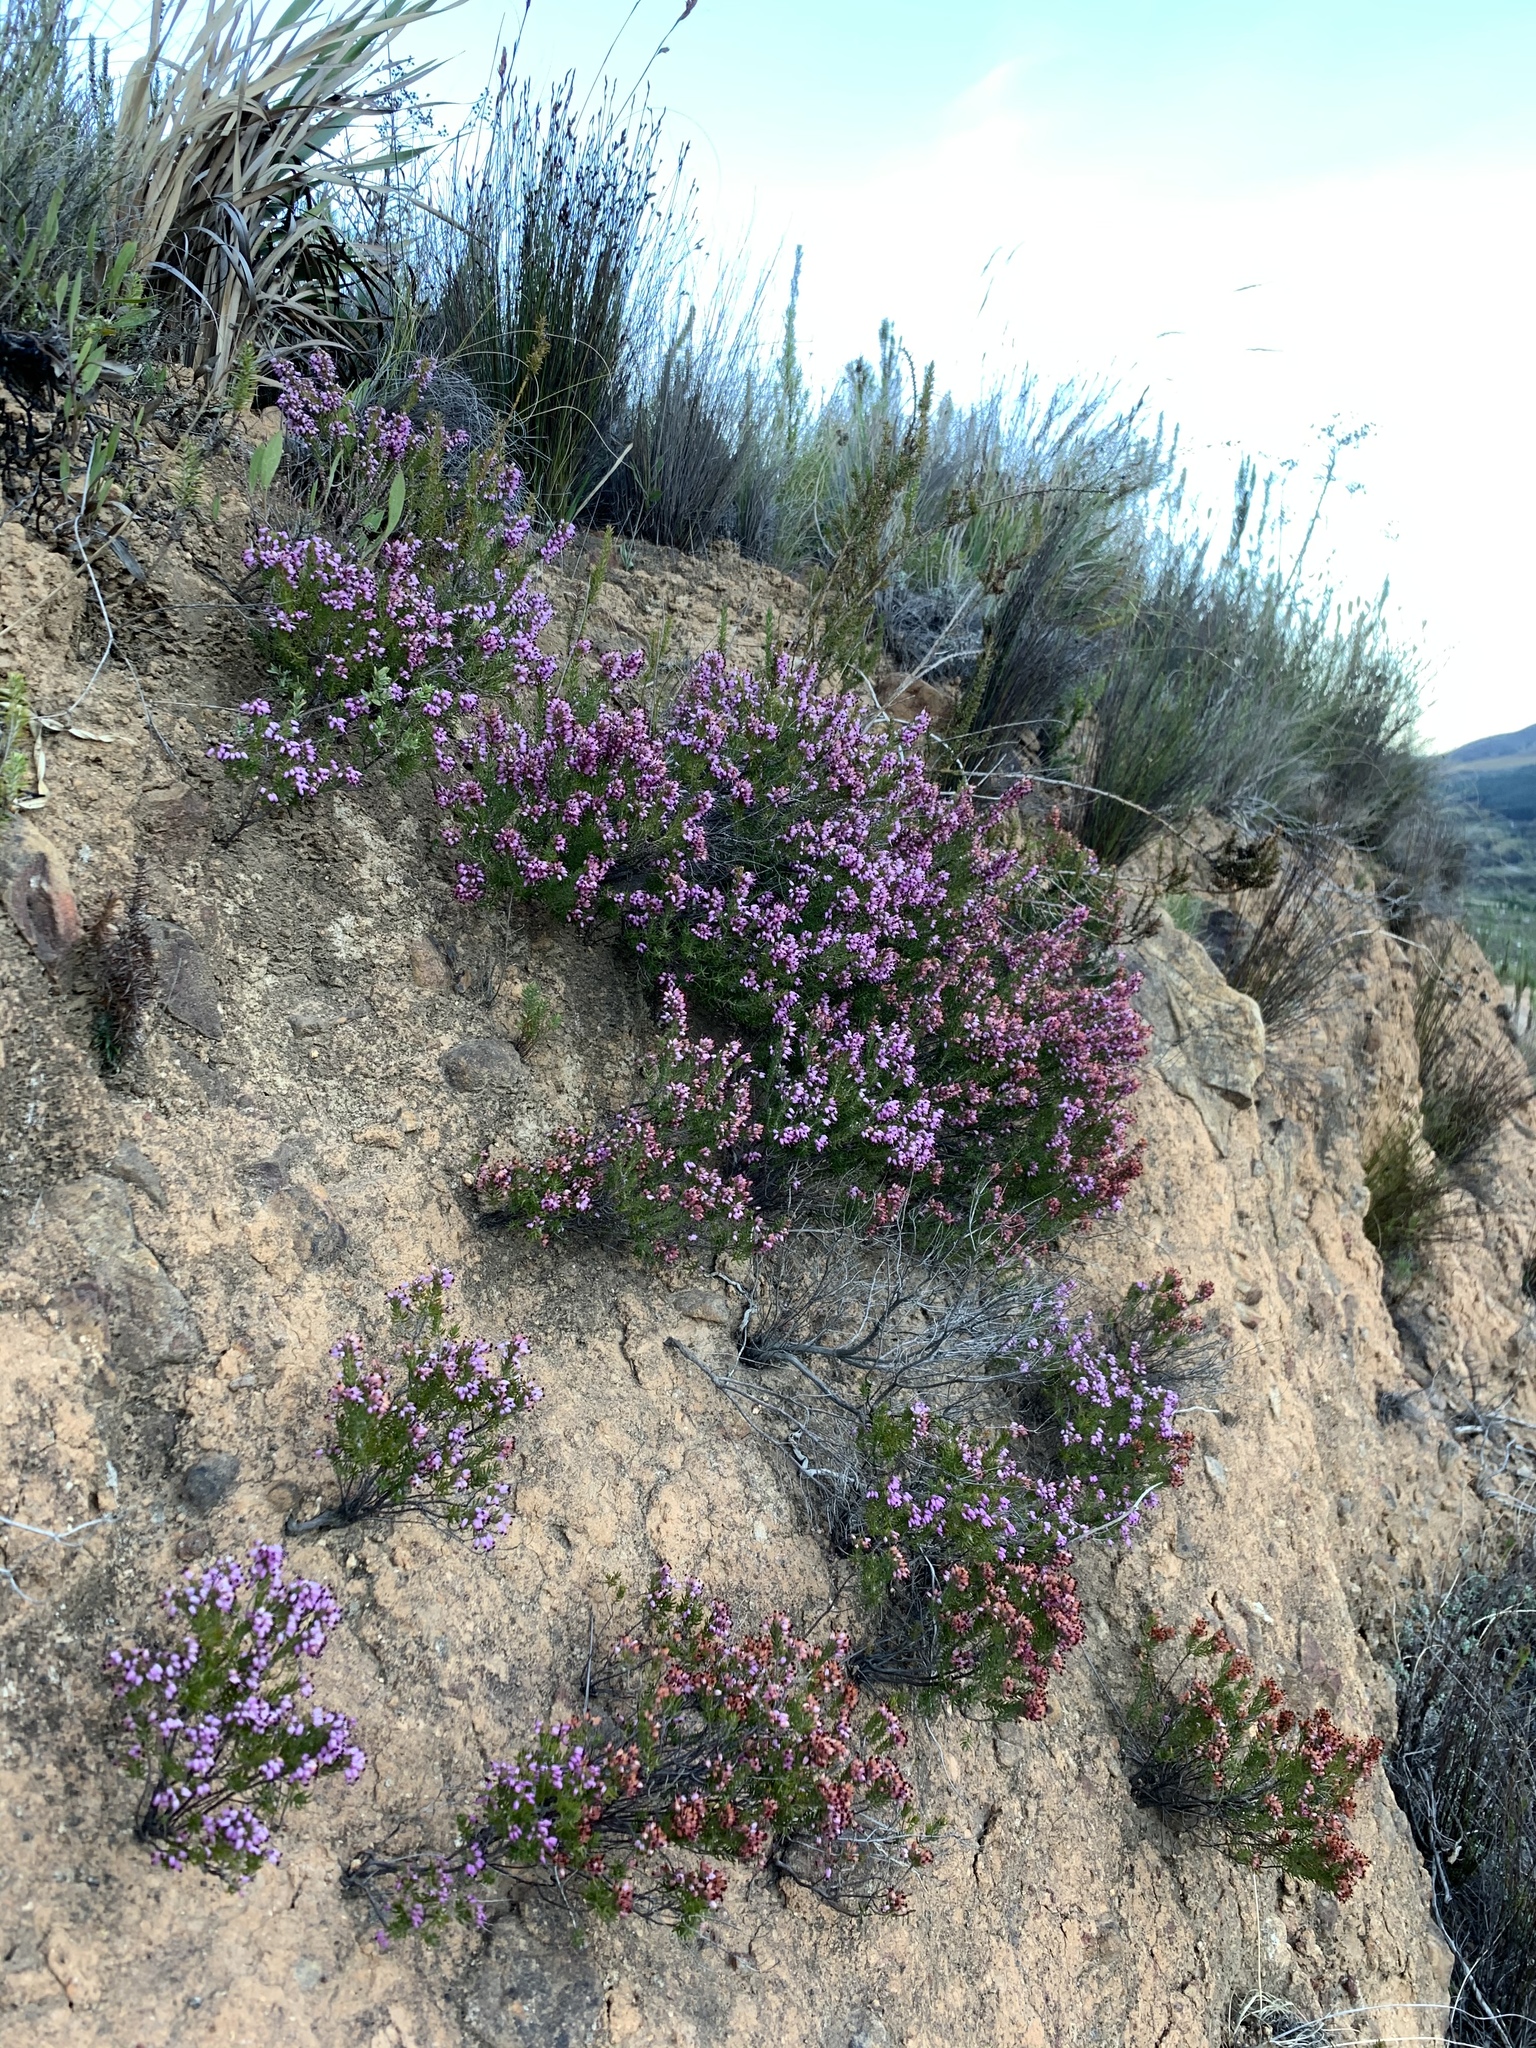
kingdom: Plantae
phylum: Tracheophyta
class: Magnoliopsida
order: Ericales
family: Ericaceae
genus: Erica
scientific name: Erica nudiflora
